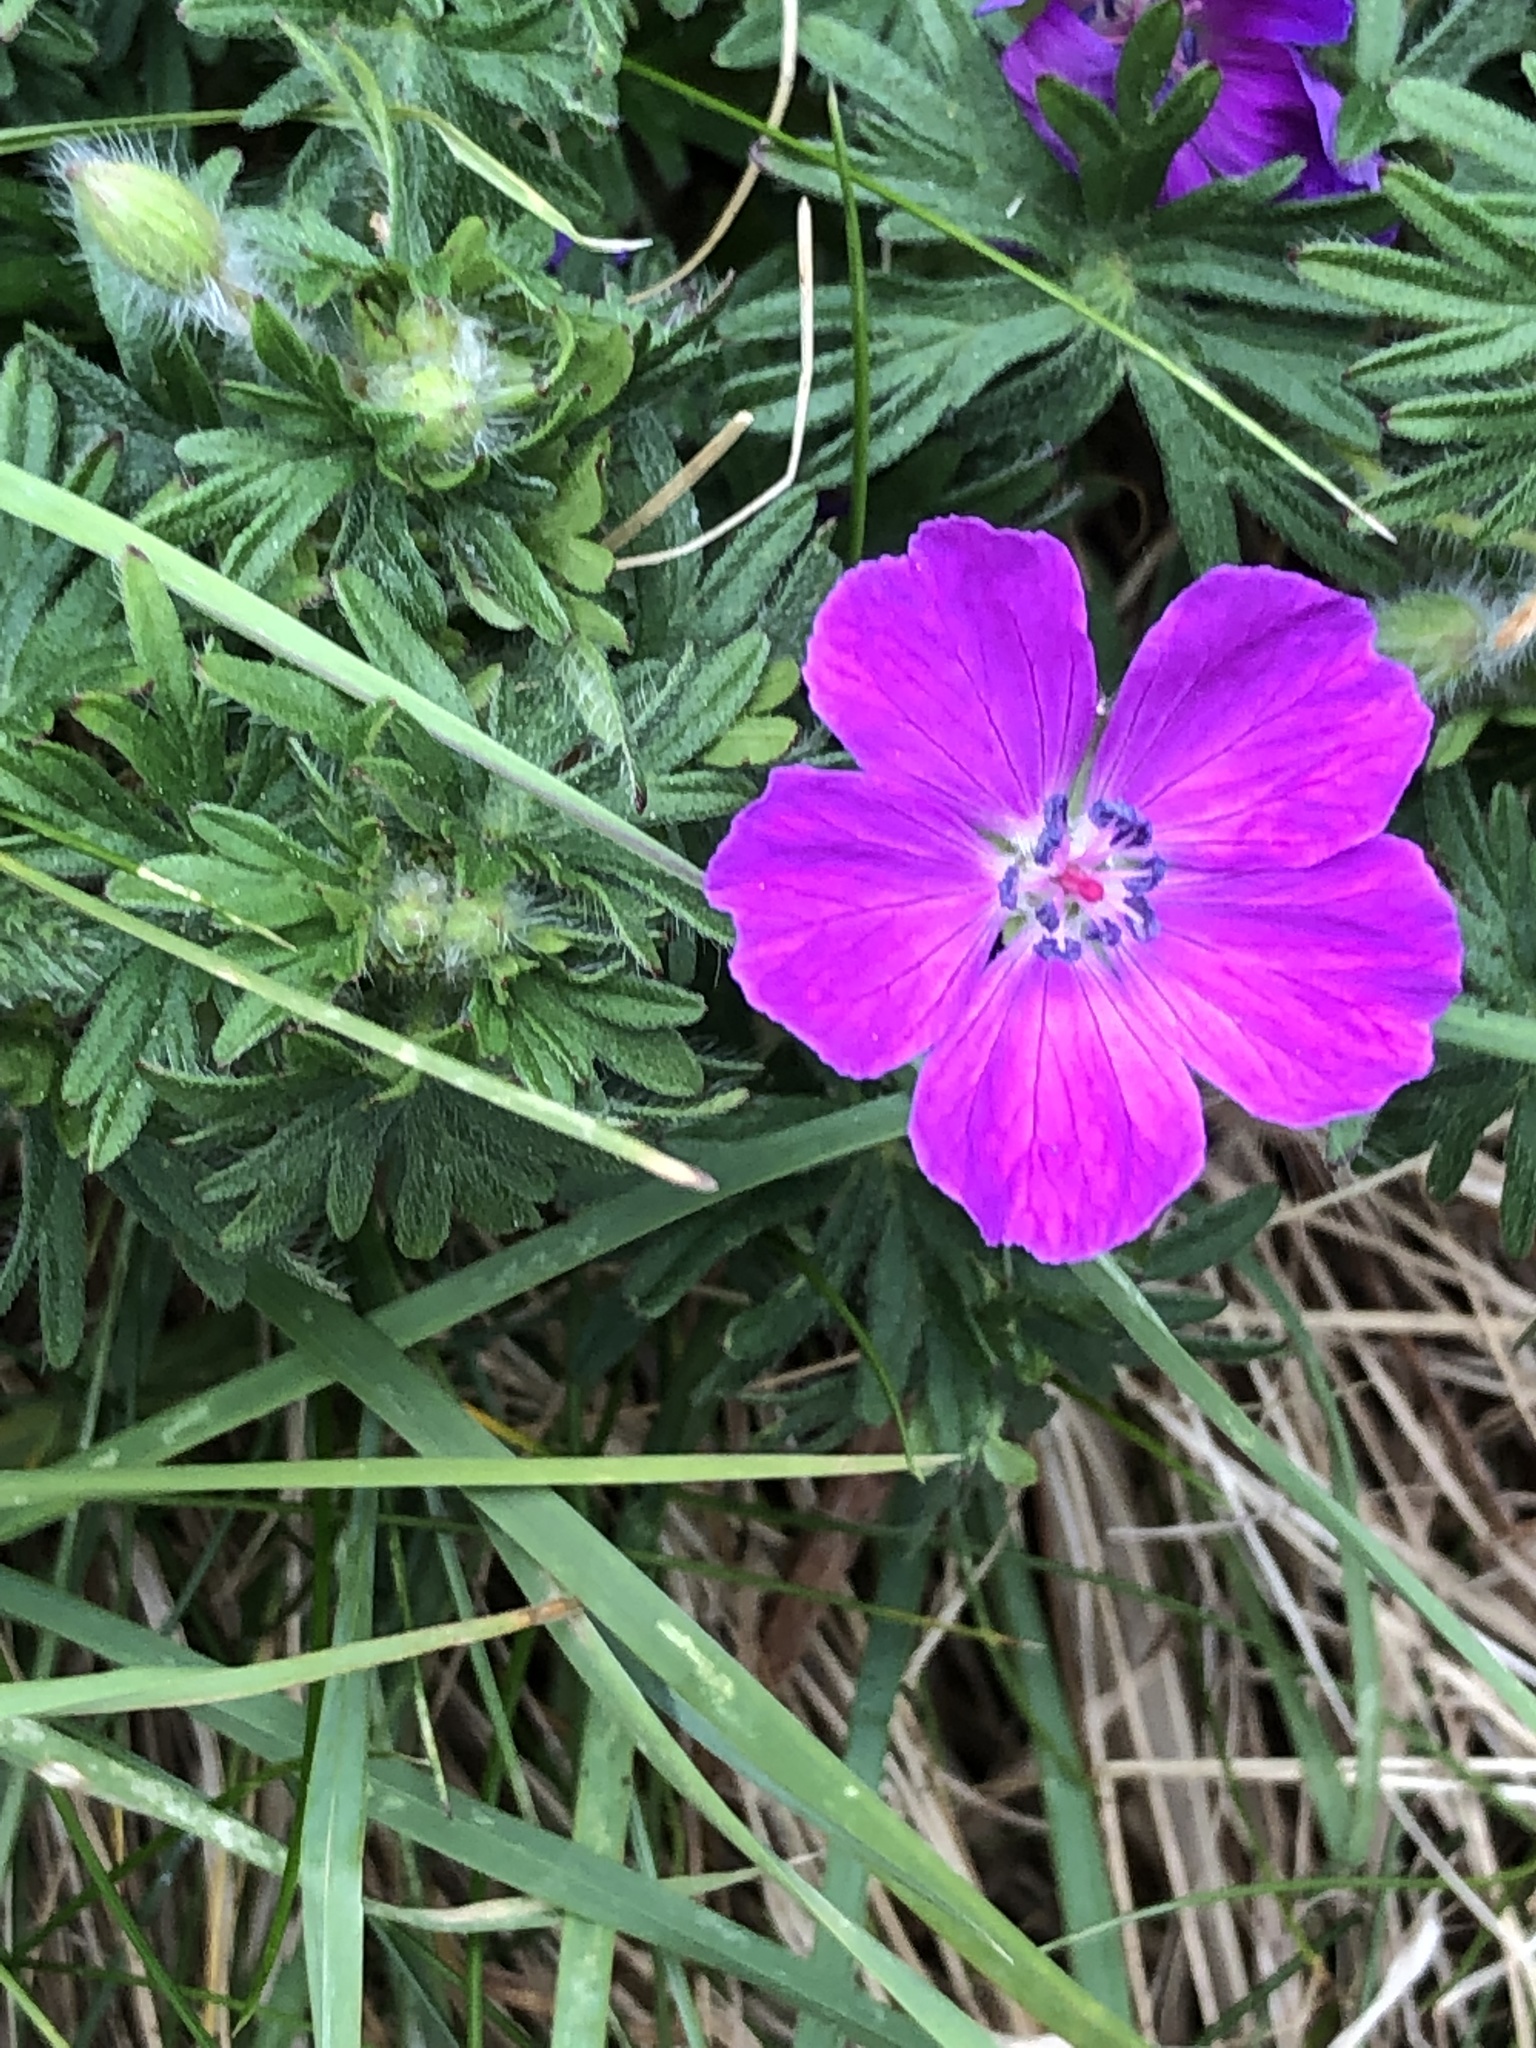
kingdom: Plantae
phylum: Tracheophyta
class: Magnoliopsida
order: Geraniales
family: Geraniaceae
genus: Geranium
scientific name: Geranium sanguineum
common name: Bloody crane's-bill
